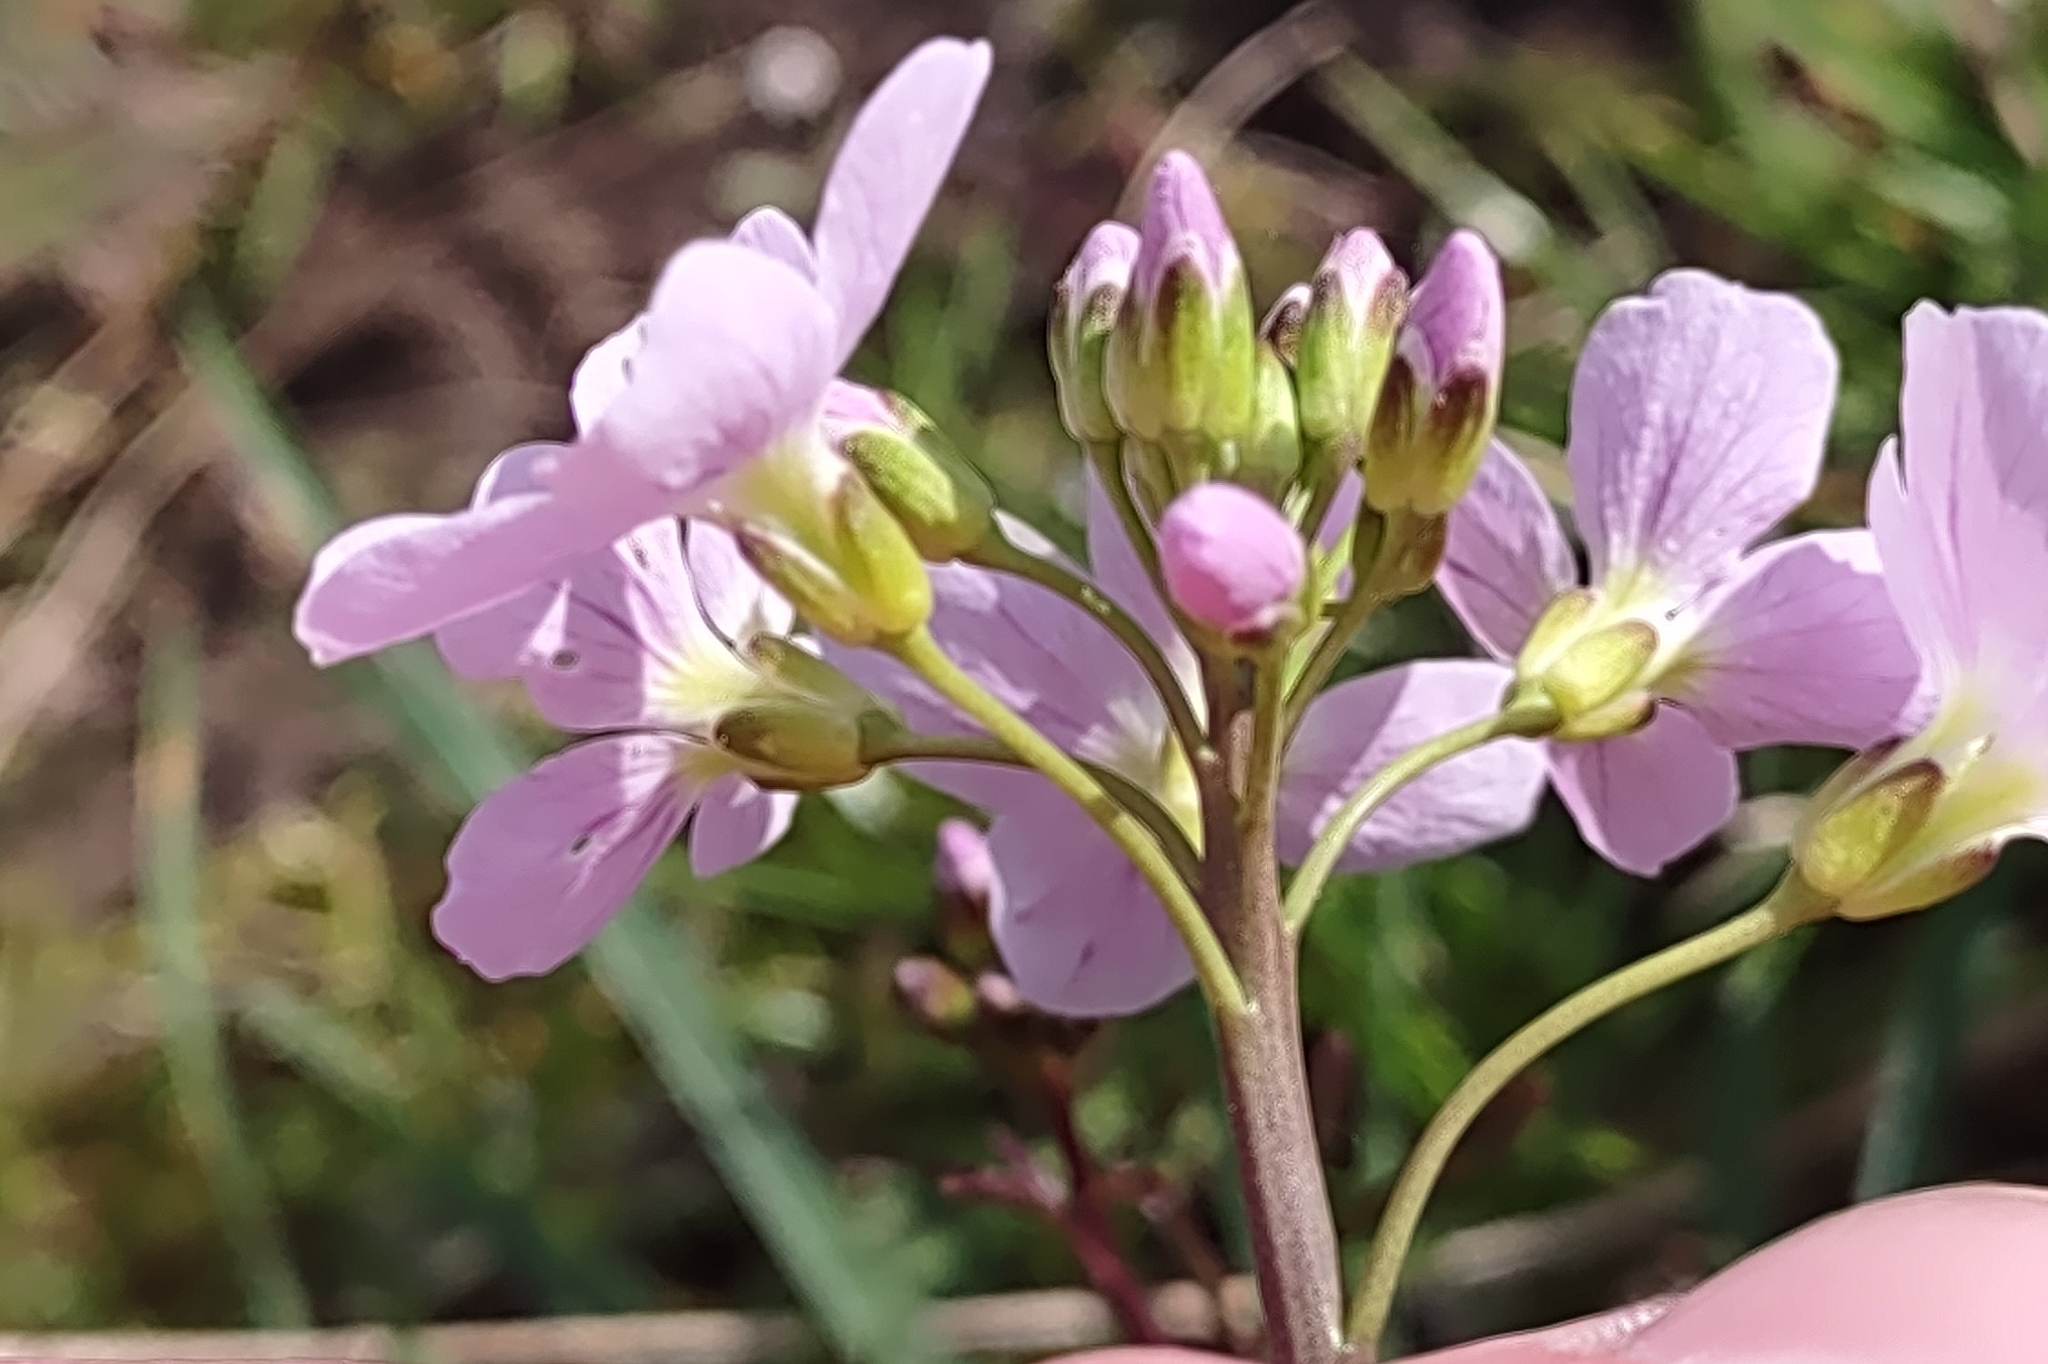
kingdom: Plantae
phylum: Tracheophyta
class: Magnoliopsida
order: Brassicales
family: Brassicaceae
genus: Cardamine
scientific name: Cardamine pratensis
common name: Cuckoo flower
